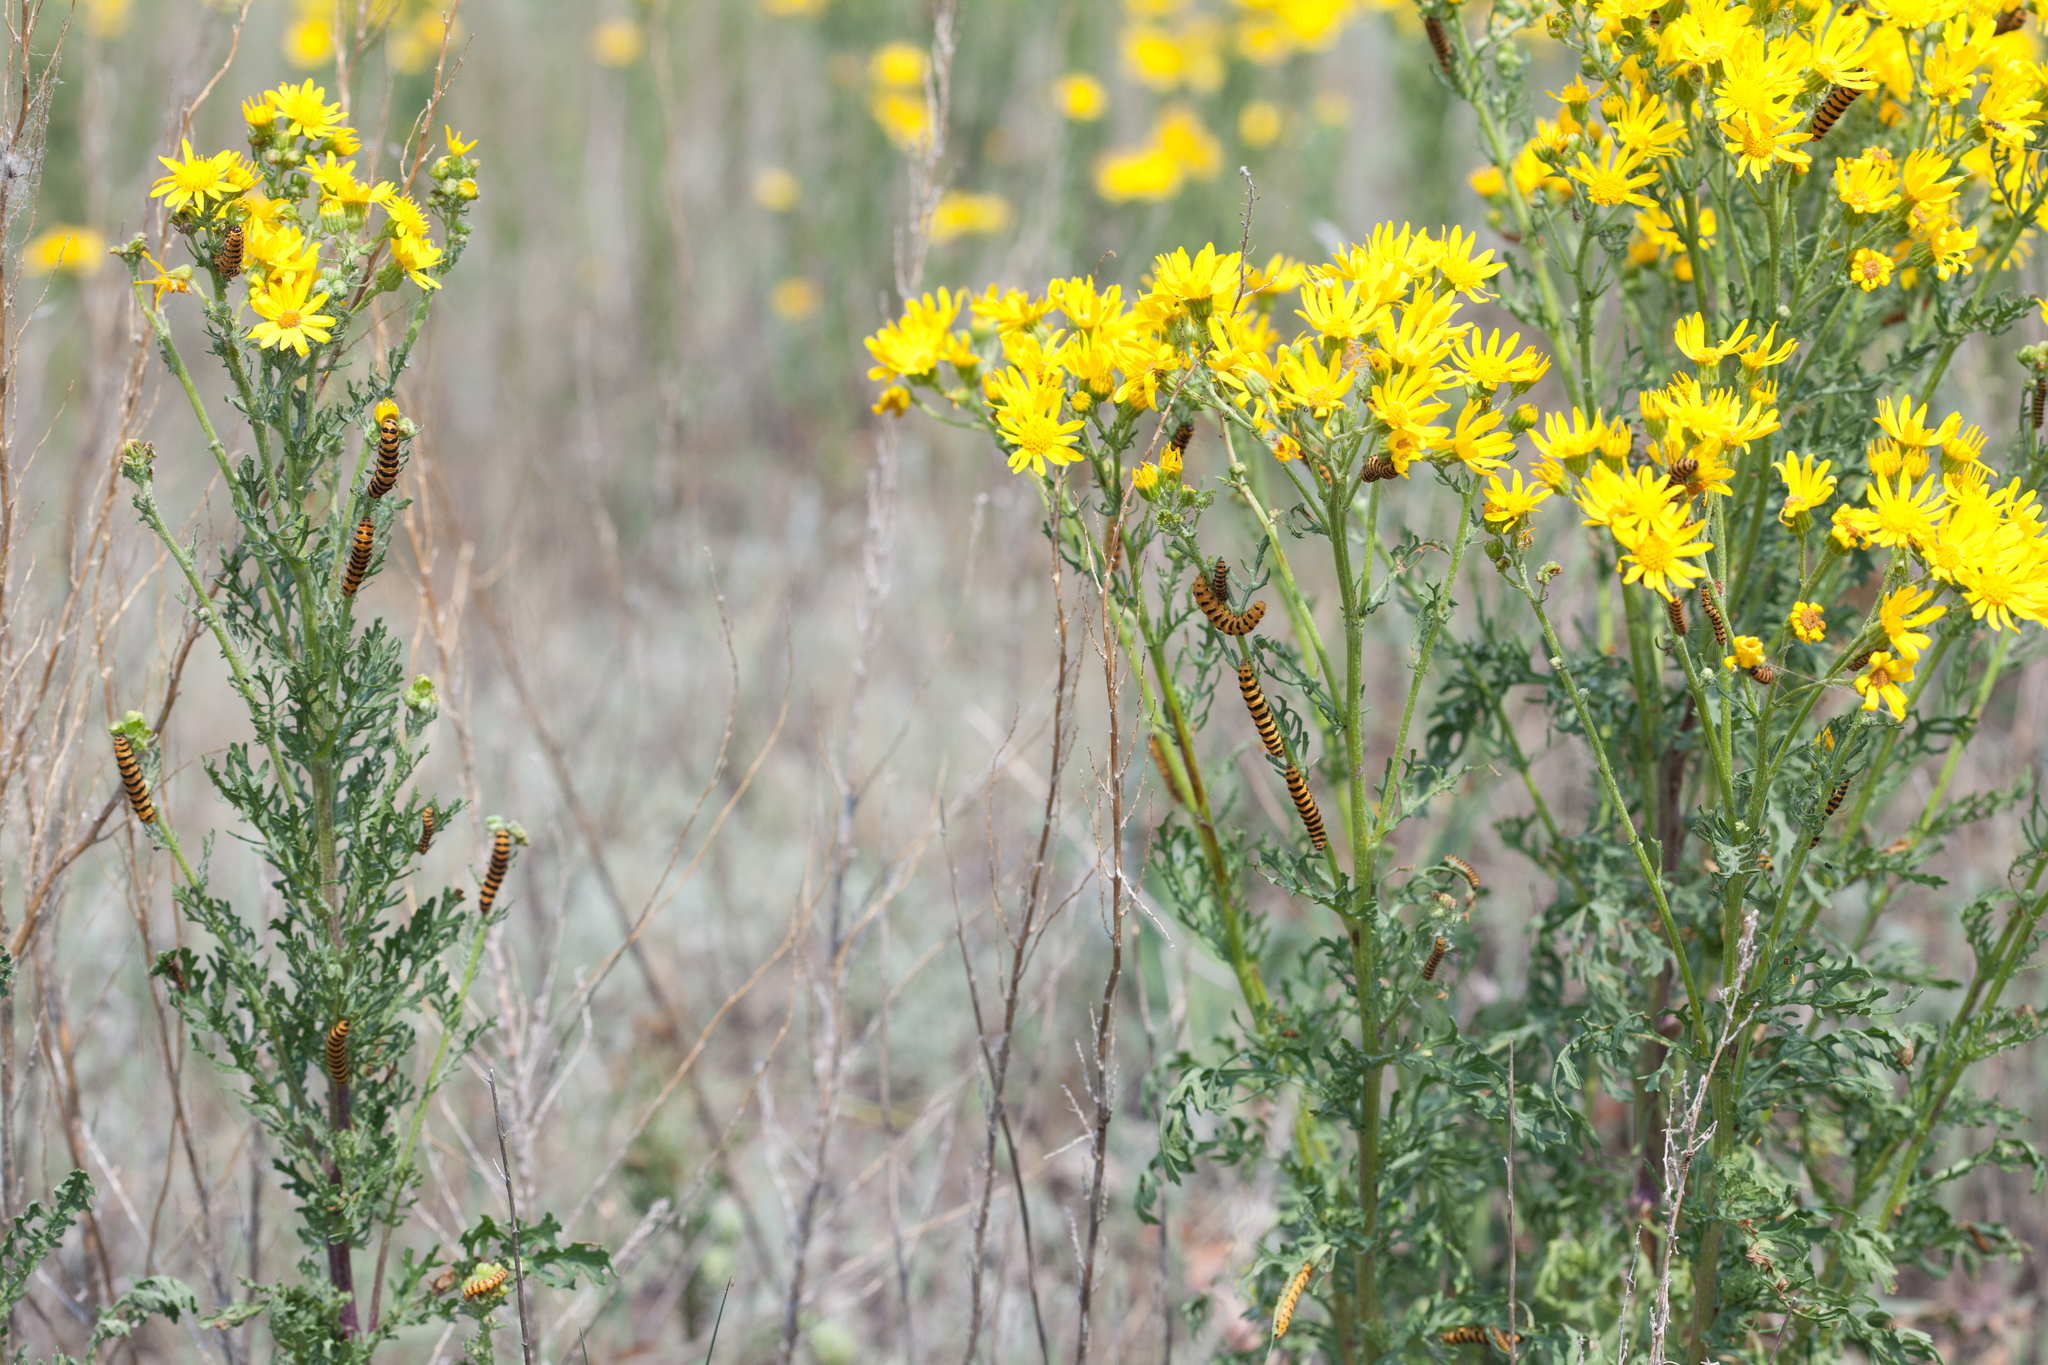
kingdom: Plantae
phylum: Tracheophyta
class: Magnoliopsida
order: Asterales
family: Asteraceae
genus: Jacobaea
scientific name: Jacobaea vulgaris
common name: Stinking willie
